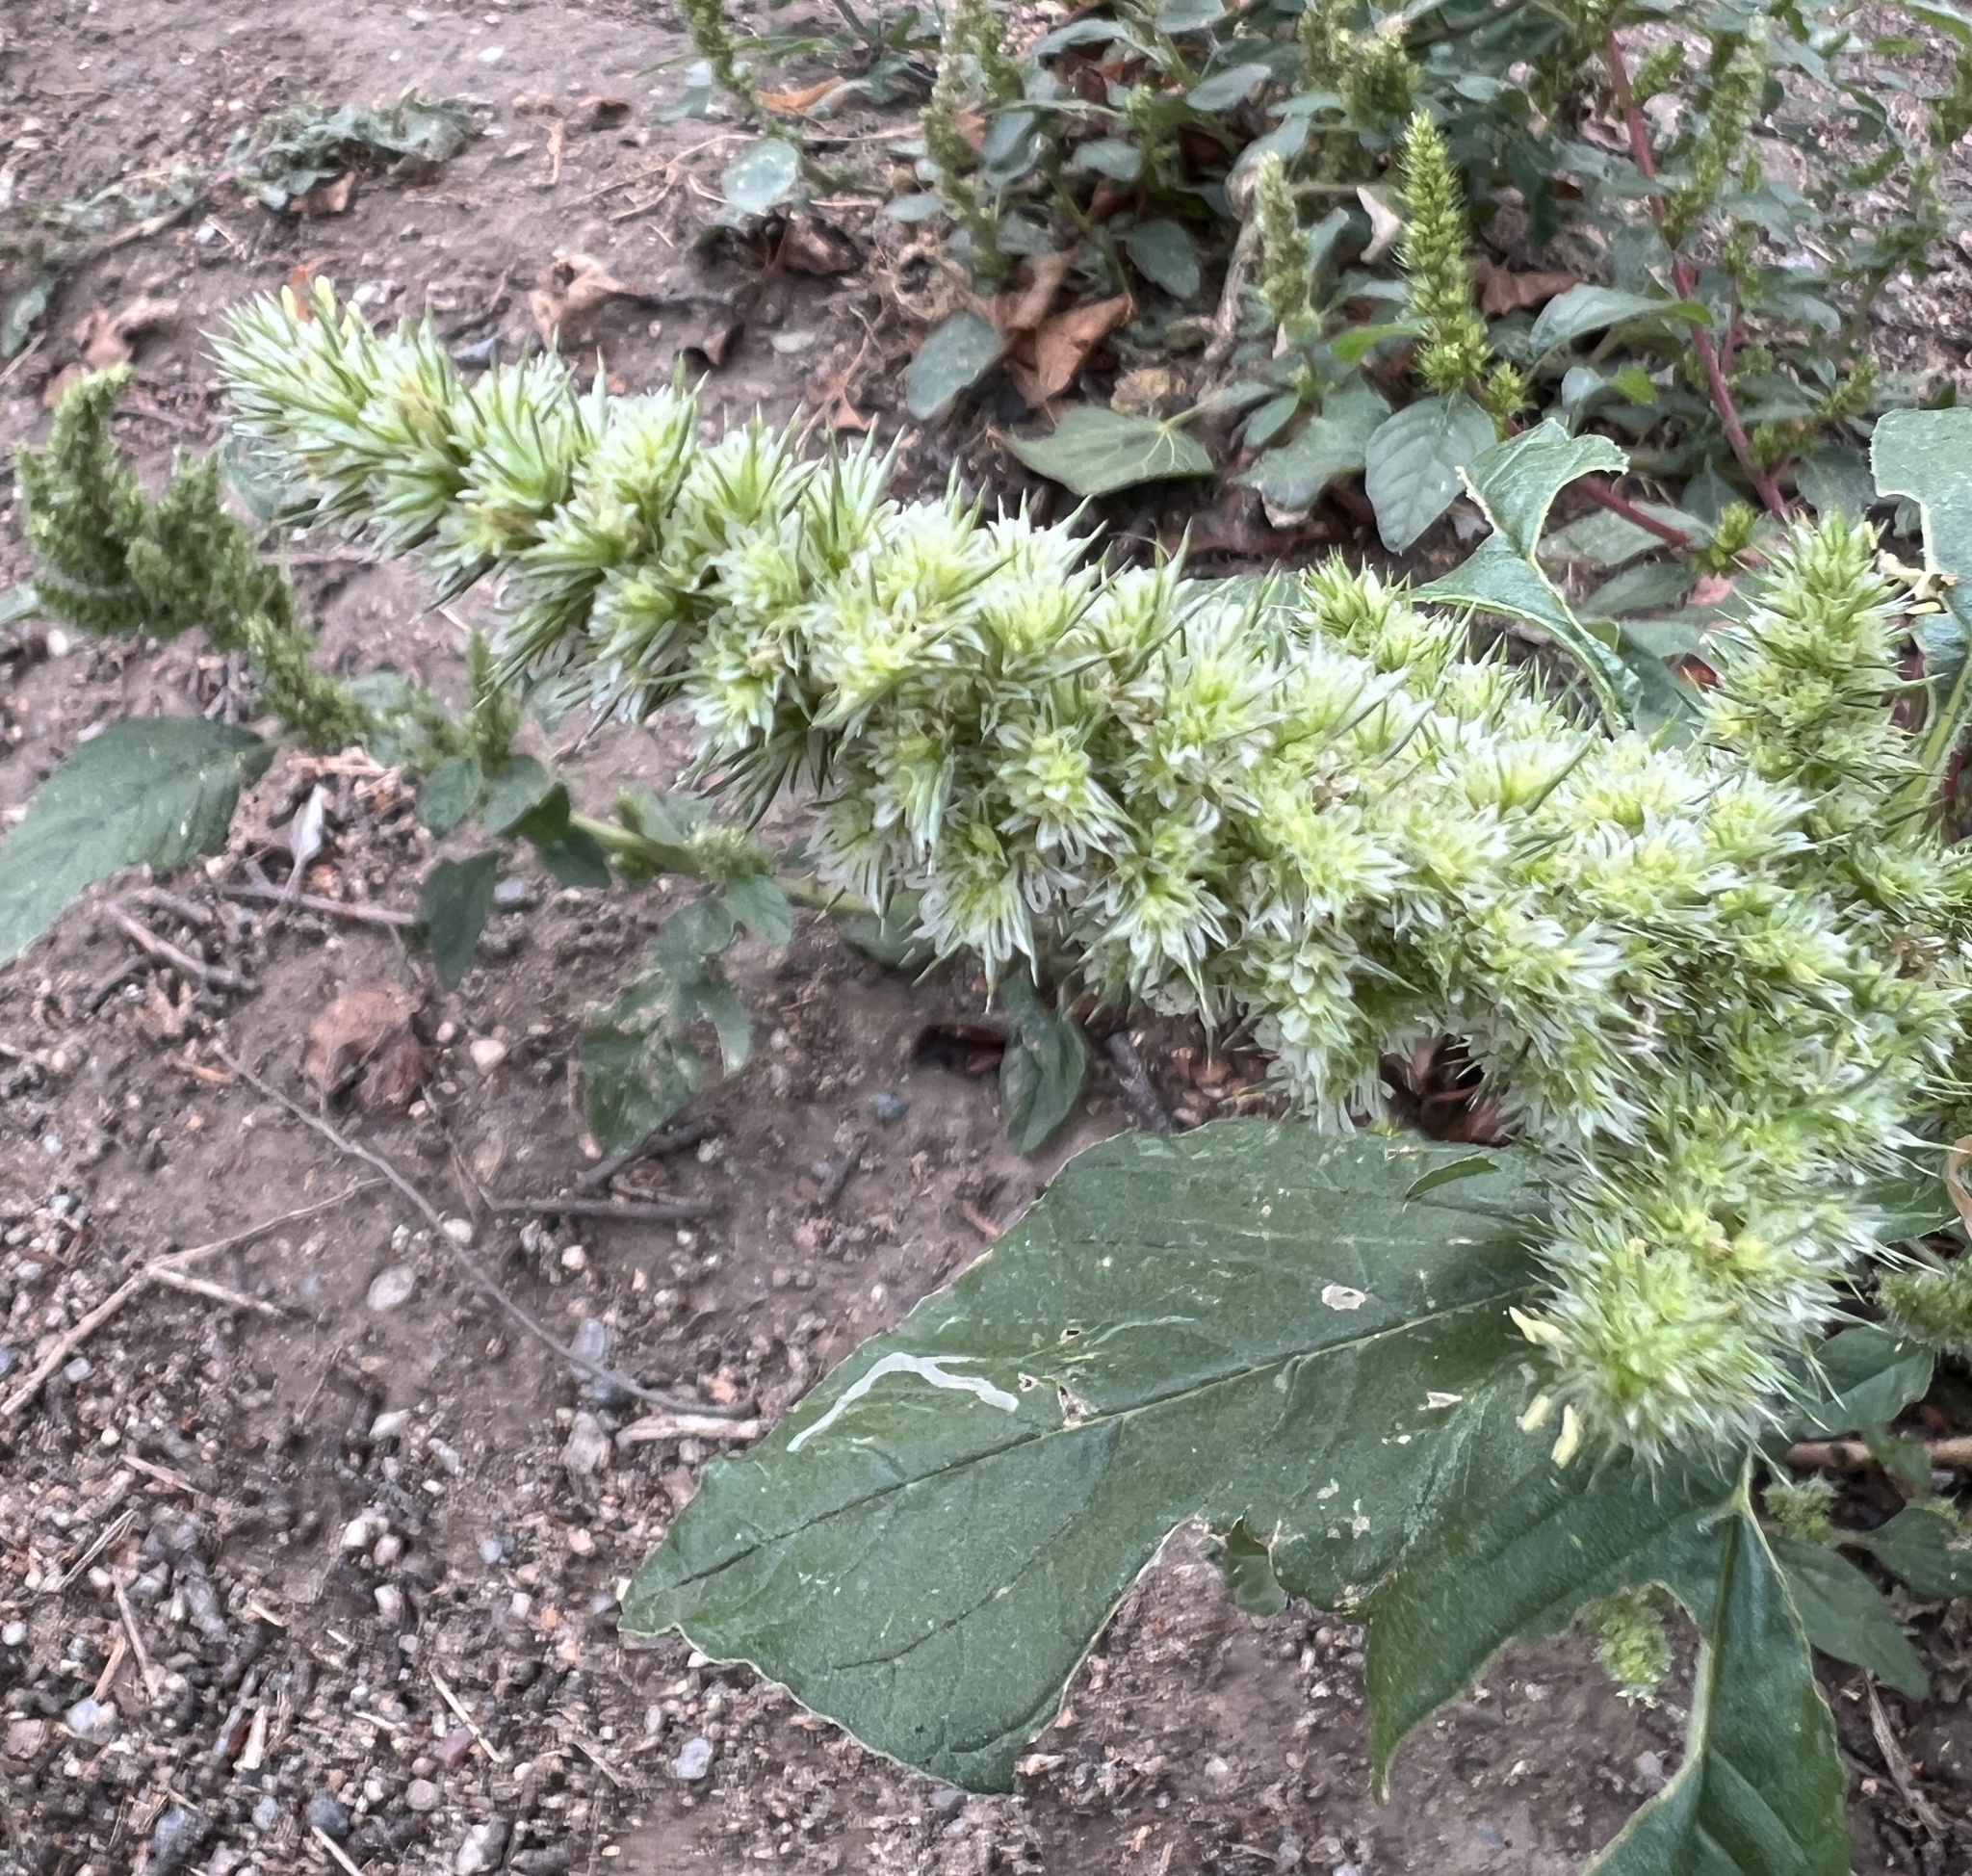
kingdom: Plantae
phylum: Tracheophyta
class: Magnoliopsida
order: Caryophyllales
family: Amaranthaceae
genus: Amaranthus
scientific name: Amaranthus retroflexus
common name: Redroot amaranth
